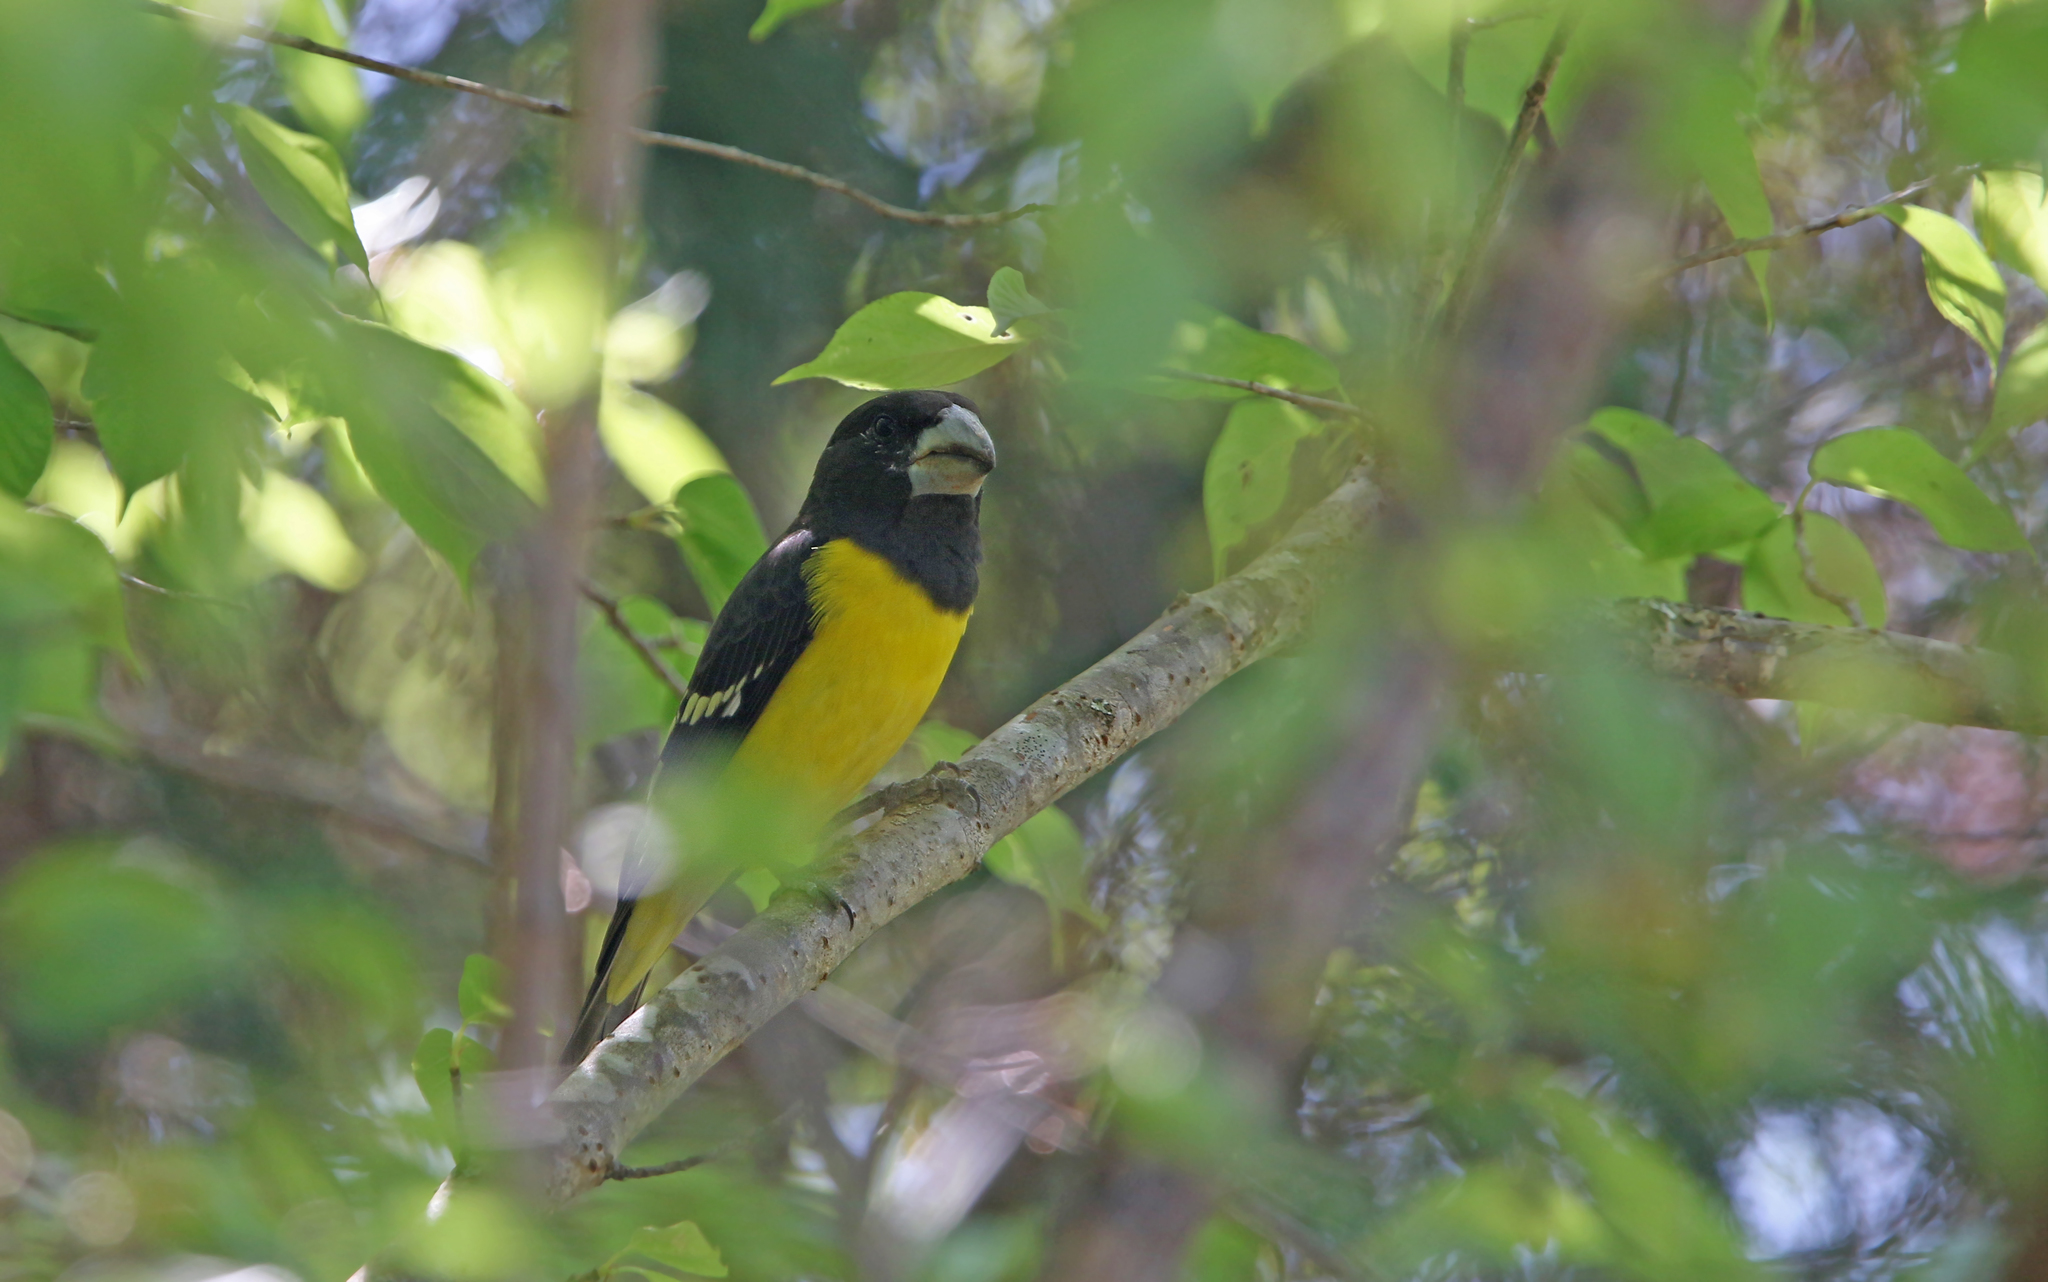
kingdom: Animalia
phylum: Chordata
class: Aves
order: Passeriformes
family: Fringillidae
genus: Mycerobas
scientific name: Mycerobas melanozanthos
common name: Spot-winged grosbeak
